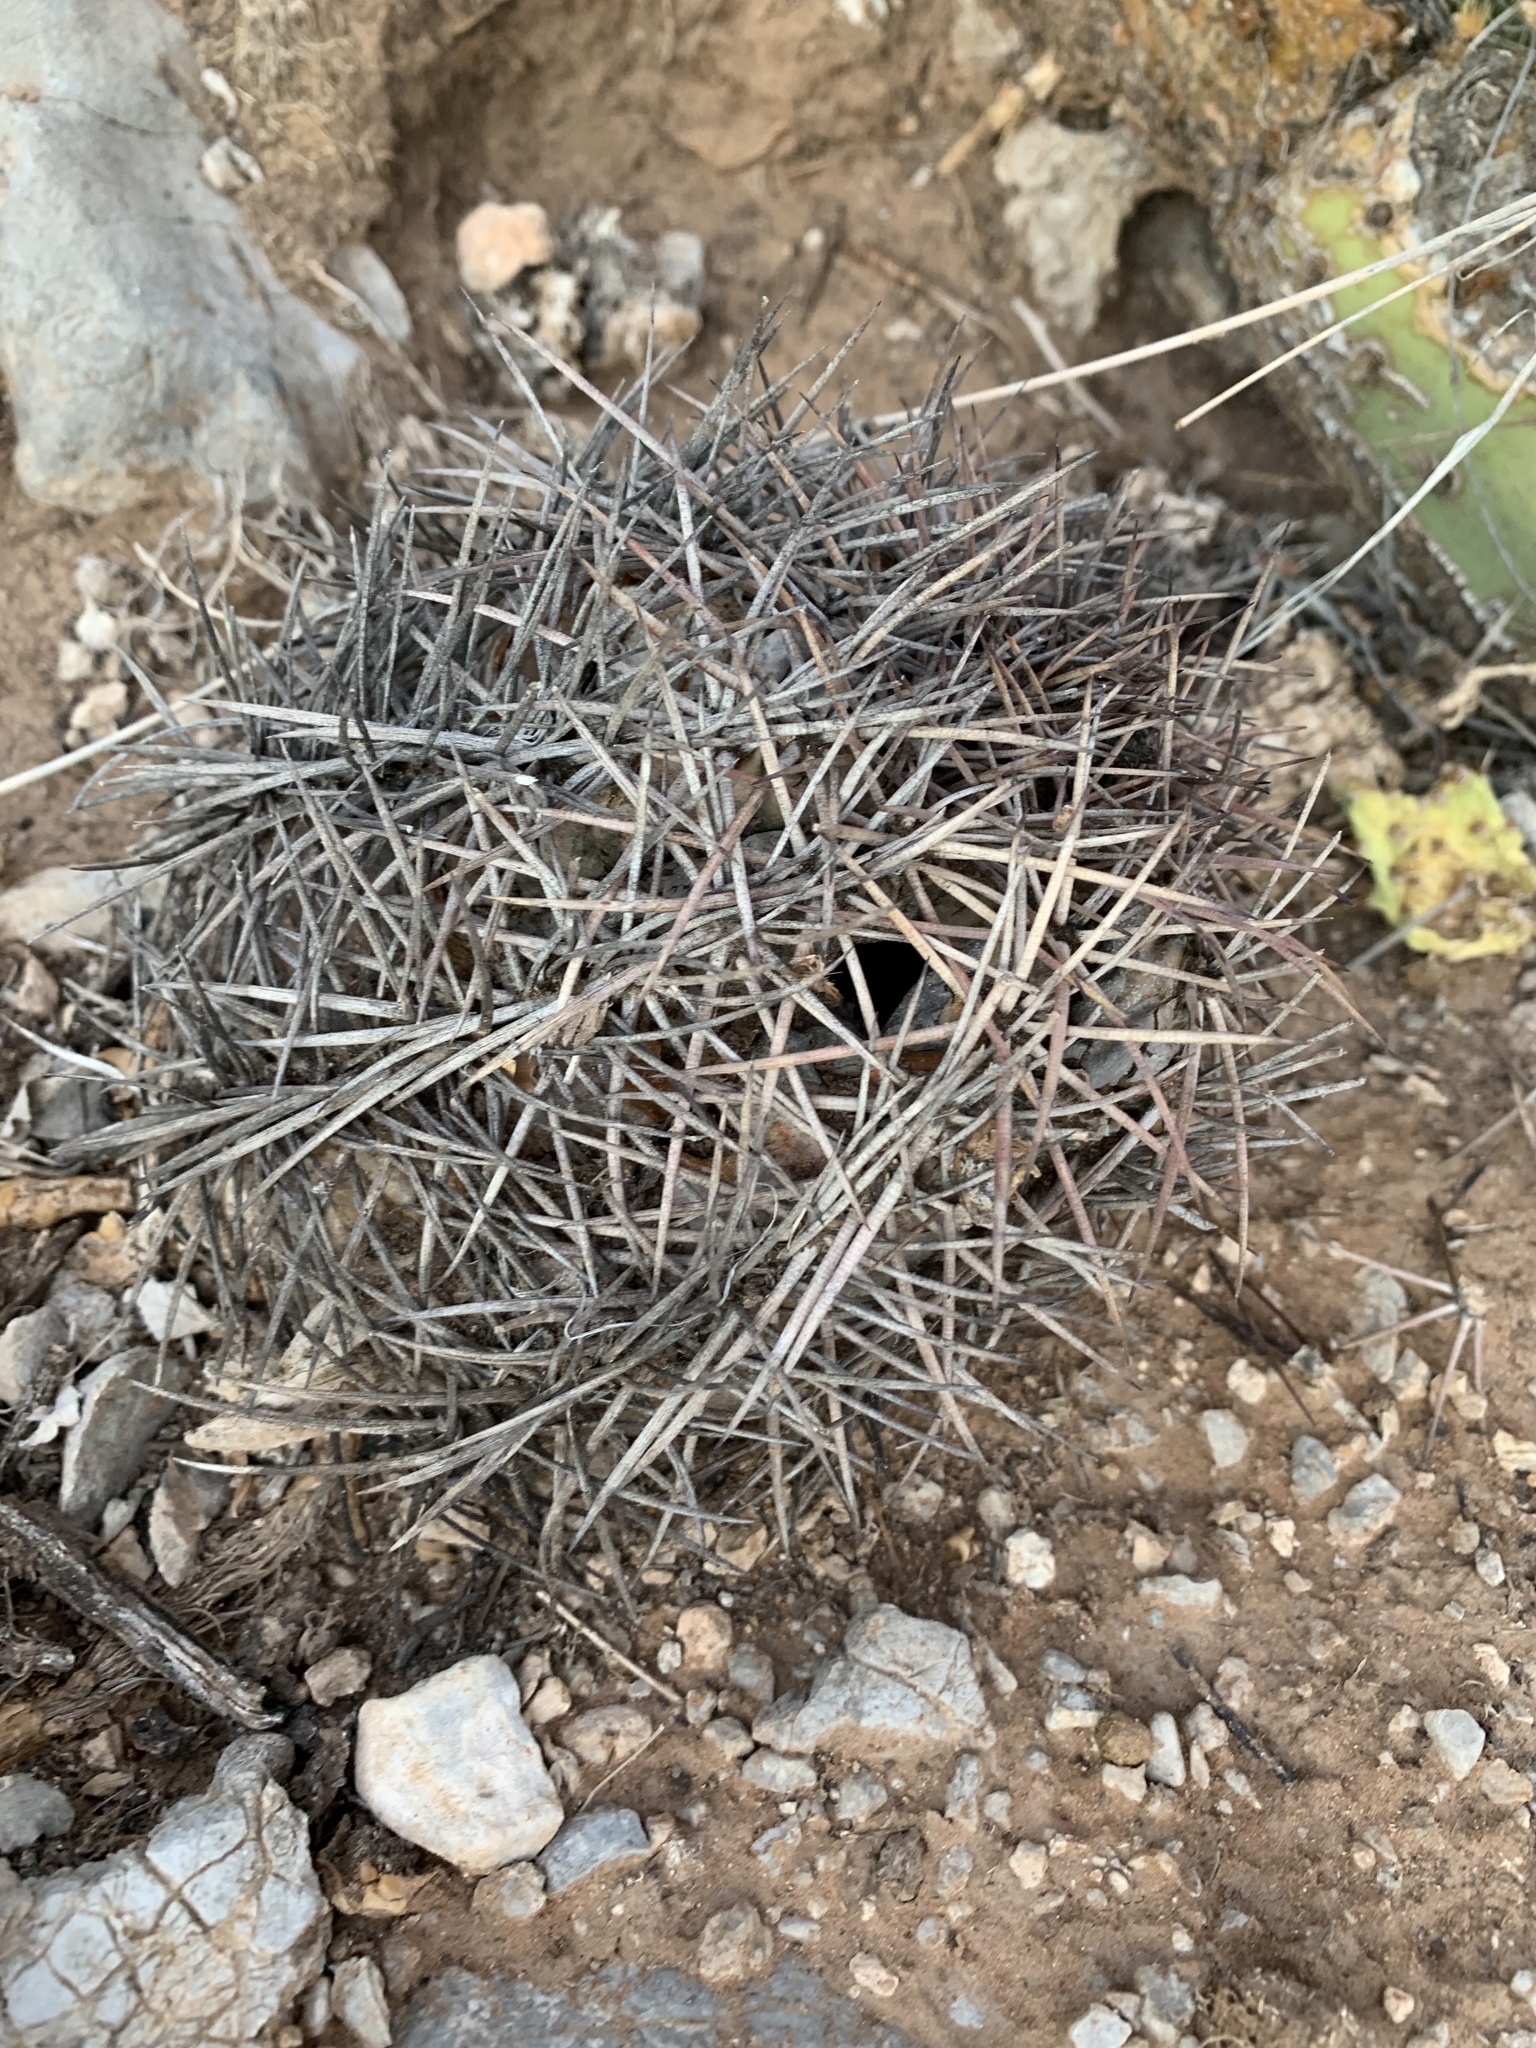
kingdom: Plantae
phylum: Tracheophyta
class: Magnoliopsida
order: Caryophyllales
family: Cactaceae
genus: Echinocactus
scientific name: Echinocactus horizonthalonius
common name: Devilshead
